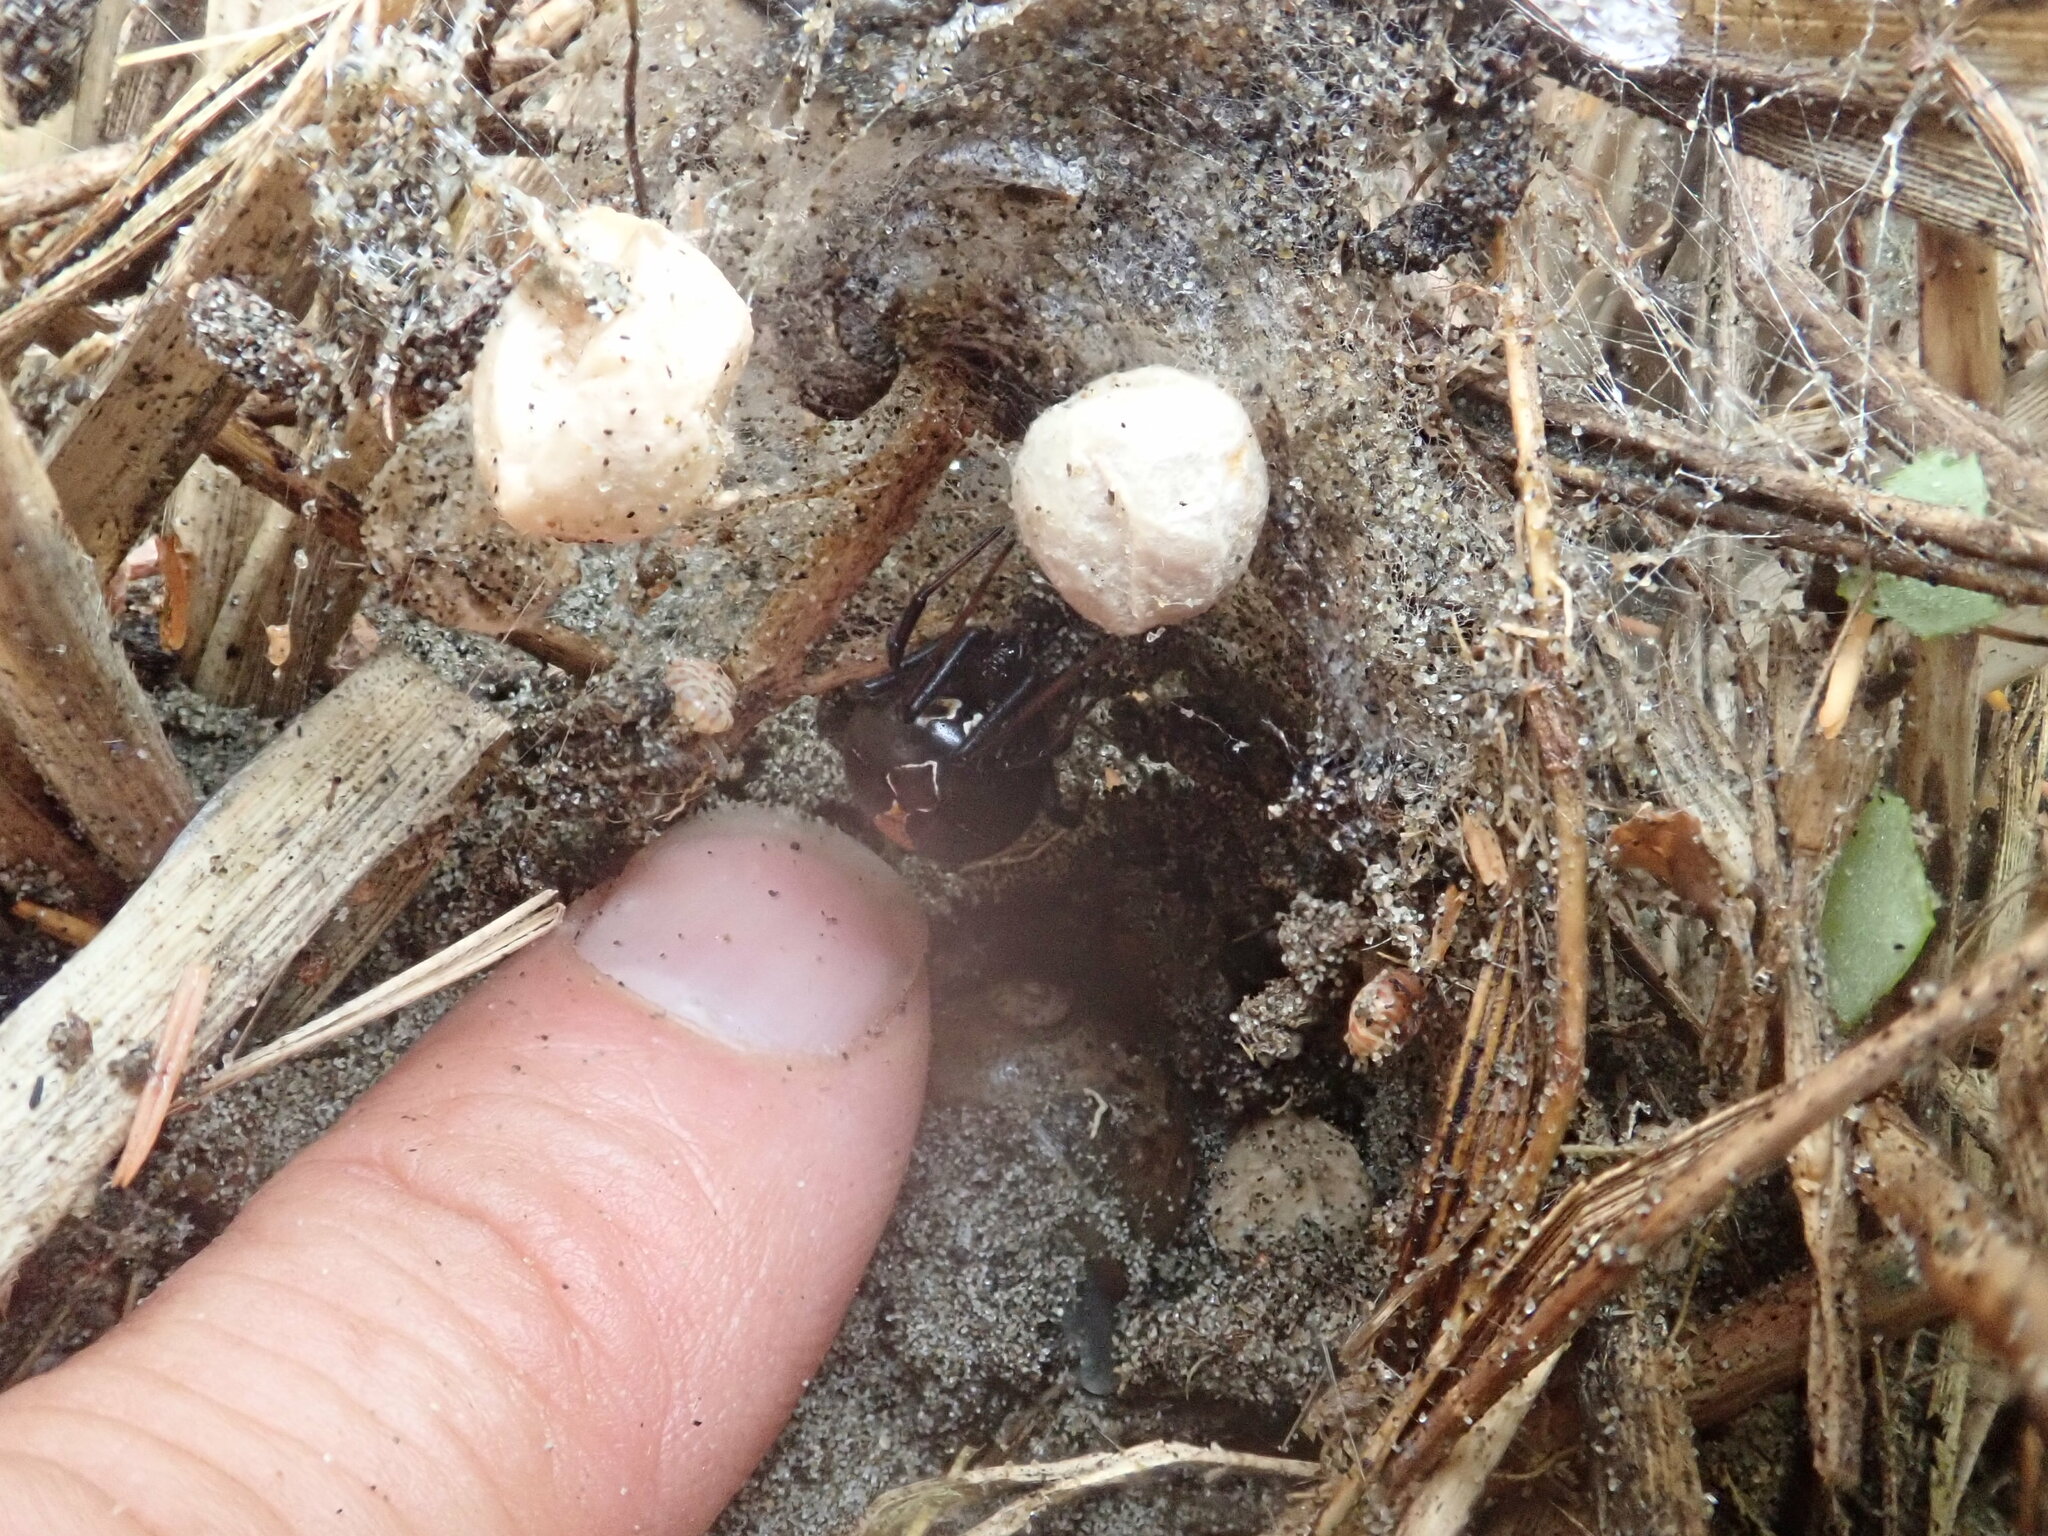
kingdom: Animalia
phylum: Arthropoda
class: Arachnida
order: Araneae
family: Theridiidae
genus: Latrodectus
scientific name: Latrodectus katipo
